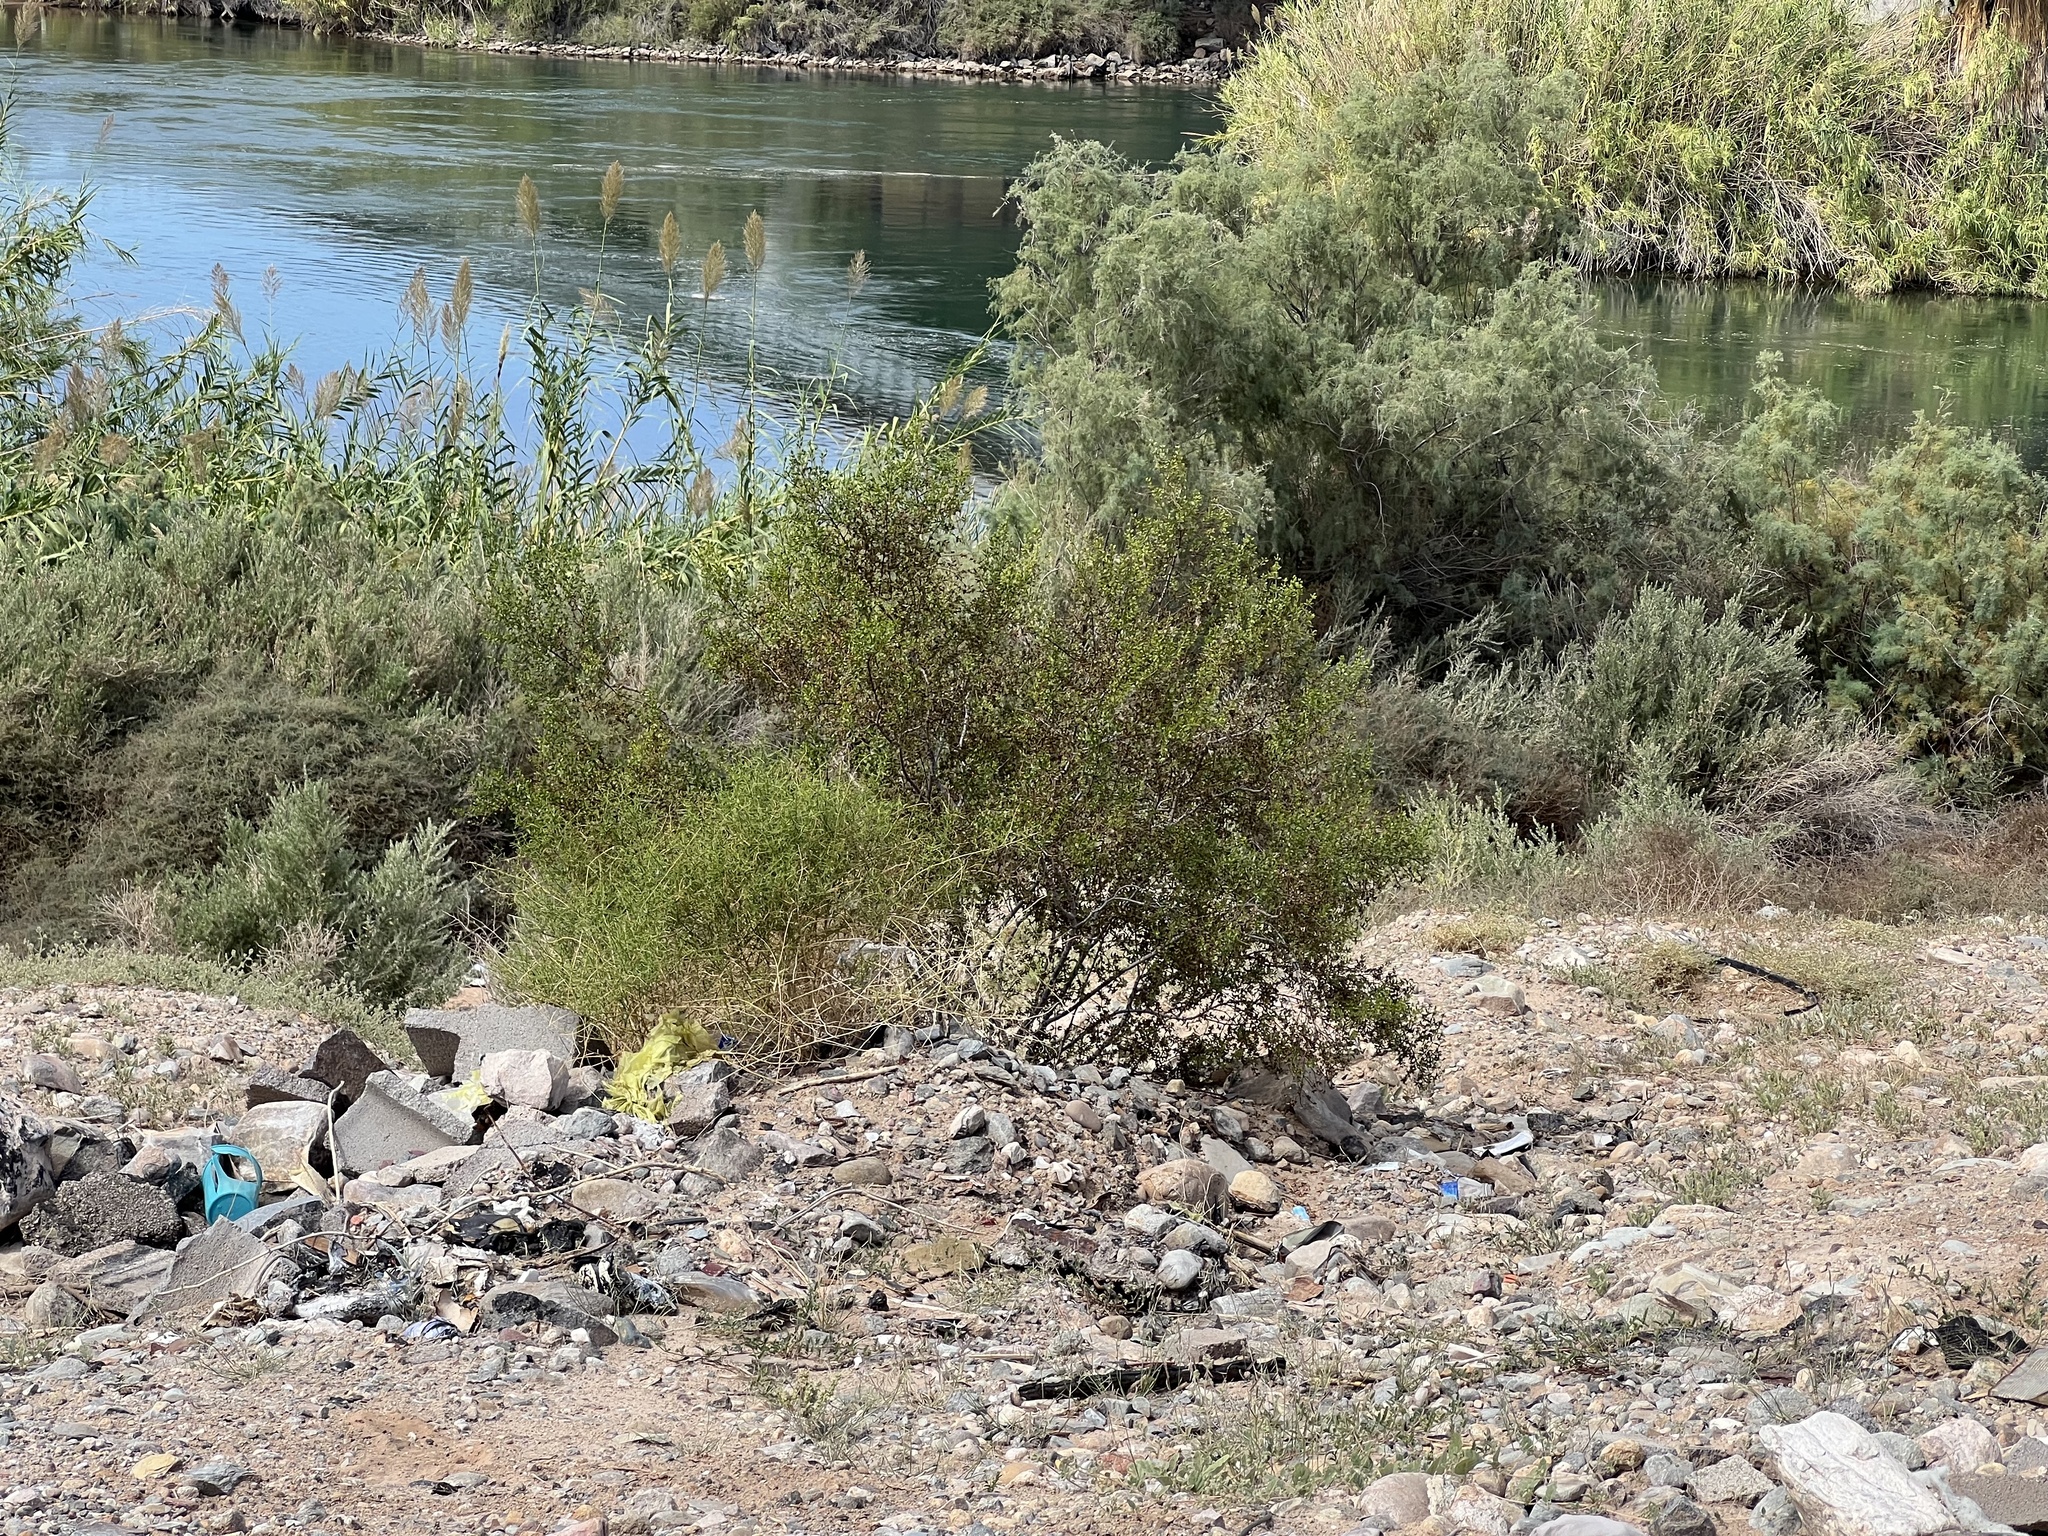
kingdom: Plantae
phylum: Tracheophyta
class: Magnoliopsida
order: Zygophyllales
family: Zygophyllaceae
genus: Larrea
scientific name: Larrea tridentata
